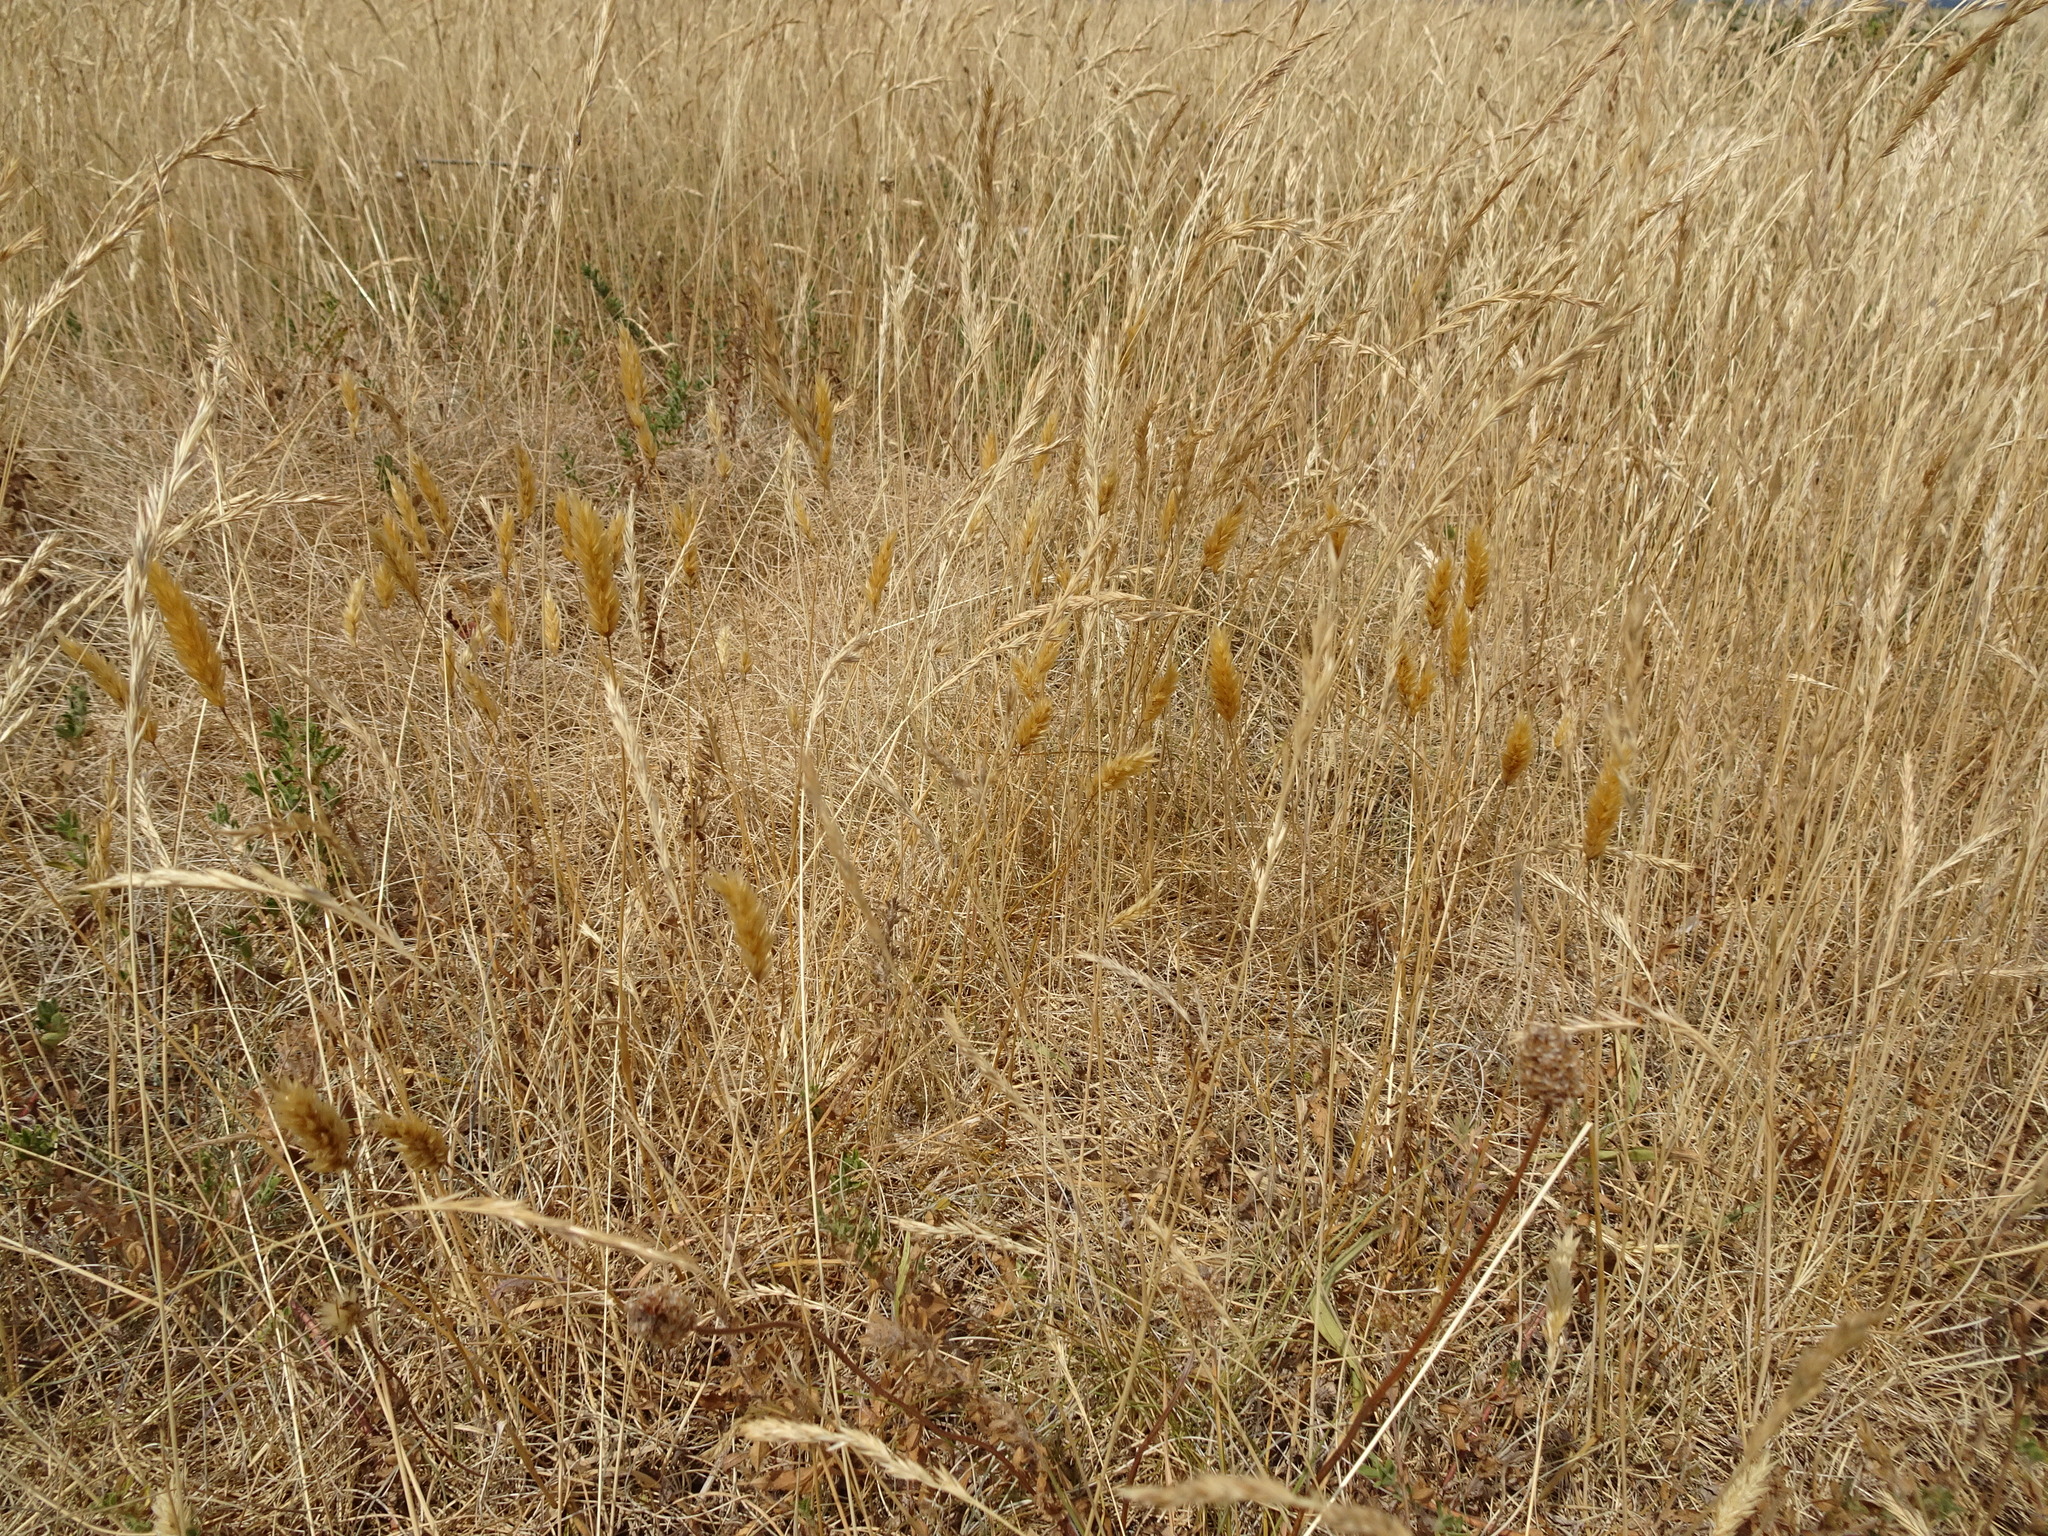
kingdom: Plantae
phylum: Tracheophyta
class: Liliopsida
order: Poales
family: Poaceae
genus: Anthoxanthum
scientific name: Anthoxanthum odoratum
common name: Sweet vernalgrass
